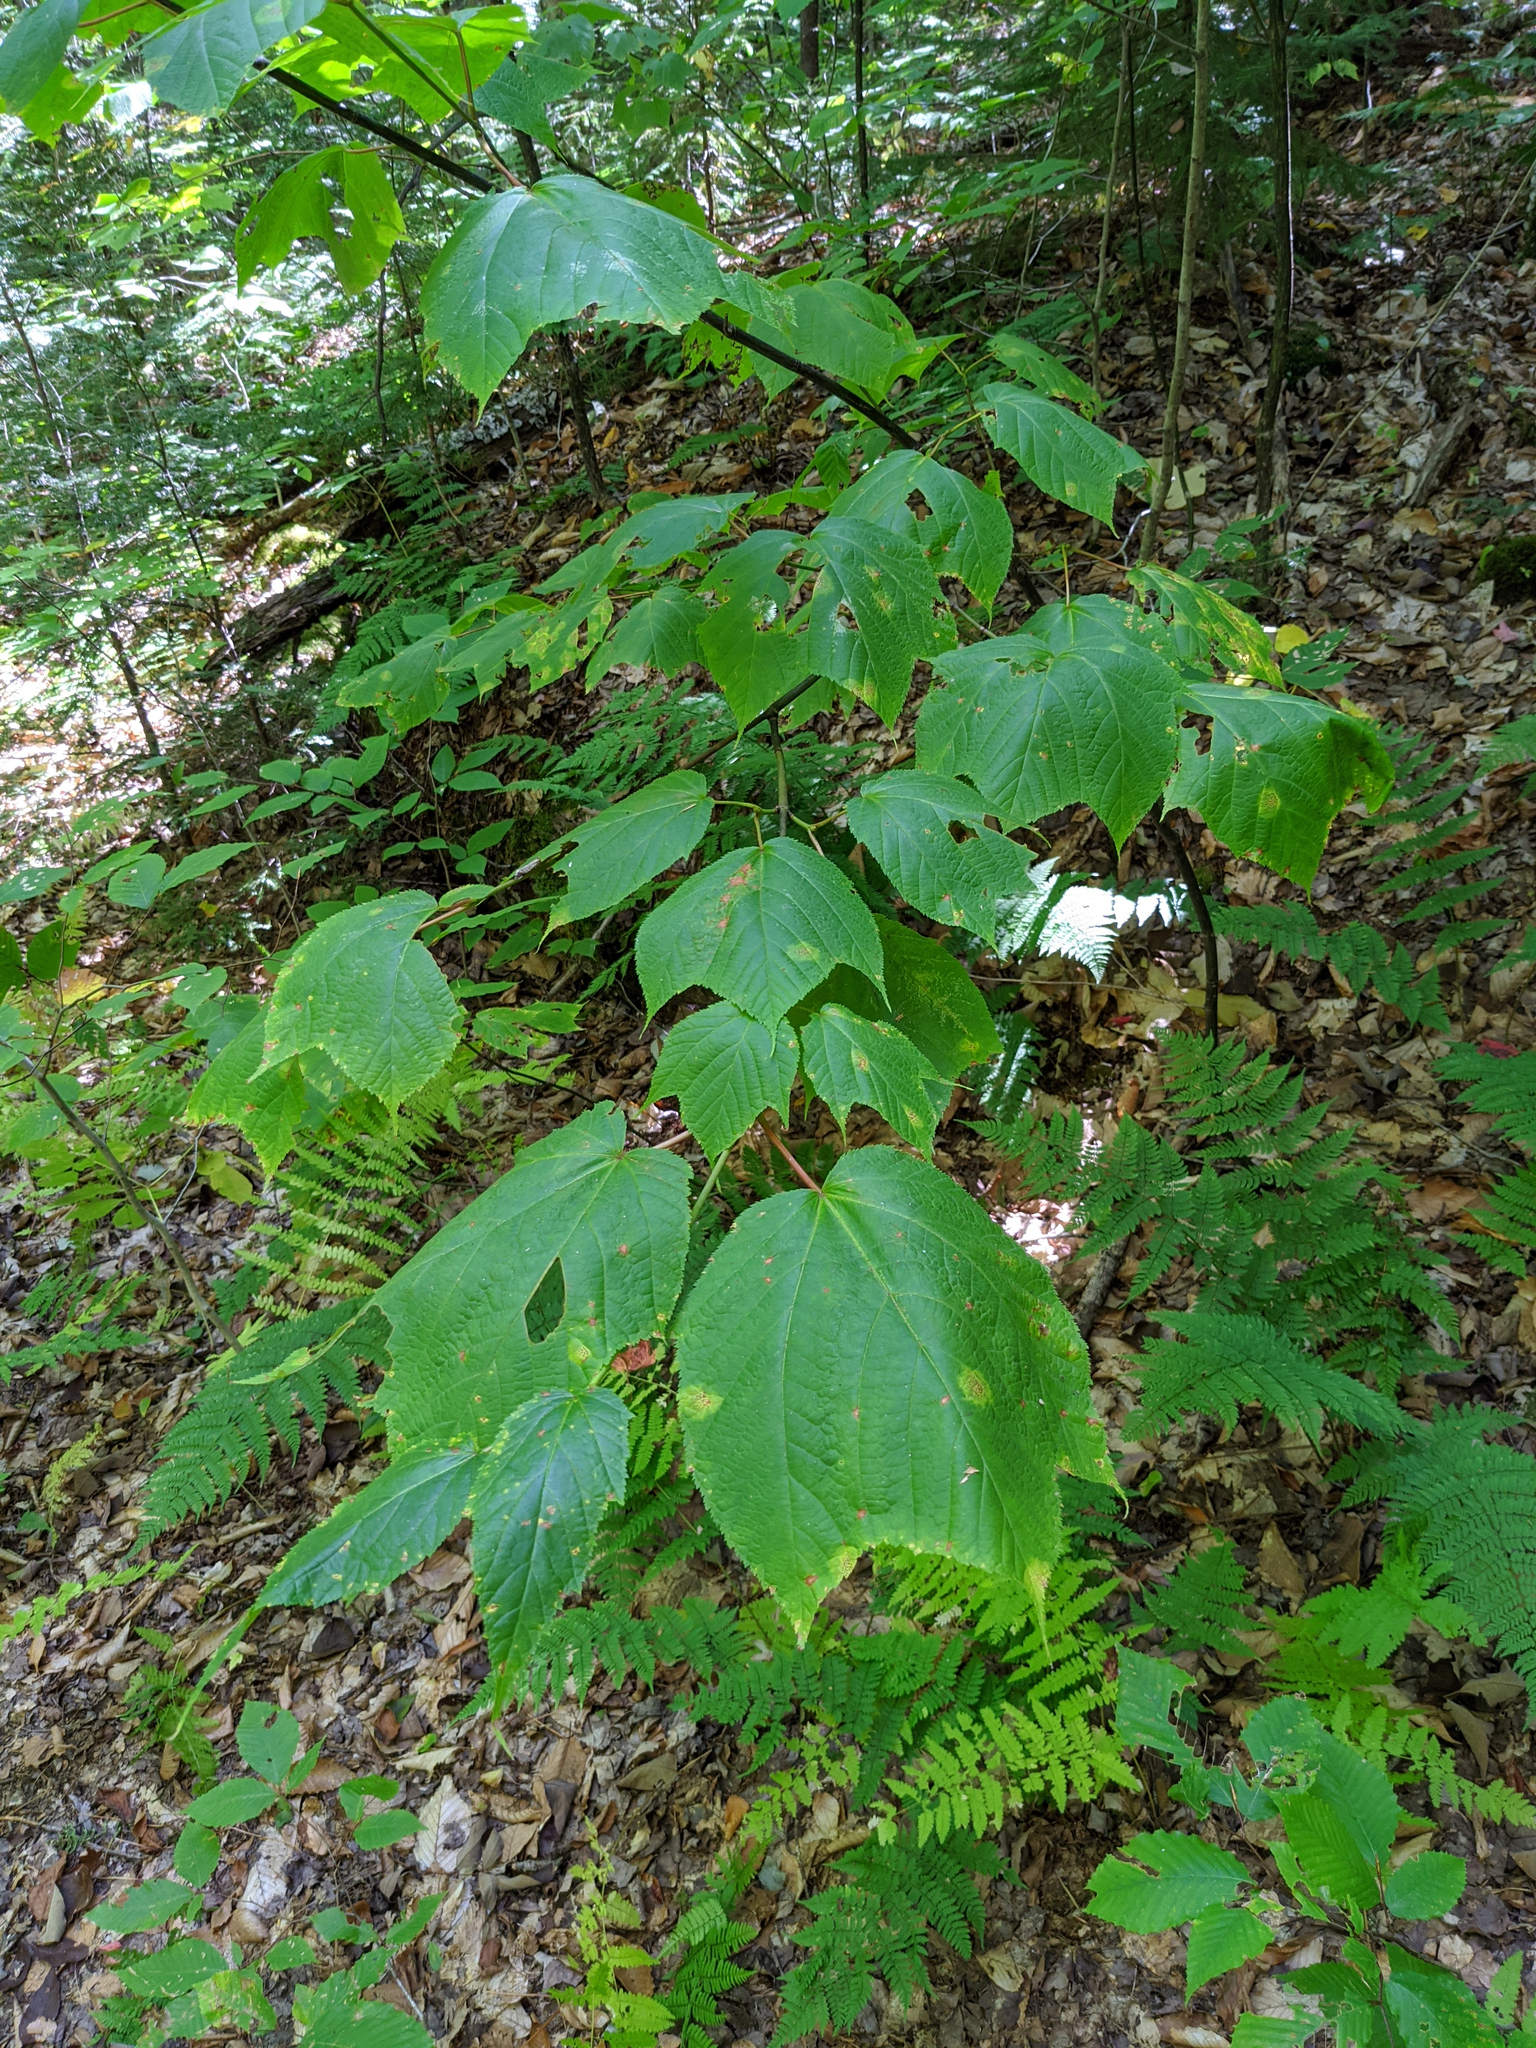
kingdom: Plantae
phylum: Tracheophyta
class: Magnoliopsida
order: Sapindales
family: Sapindaceae
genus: Acer
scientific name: Acer pensylvanicum
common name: Moosewood
